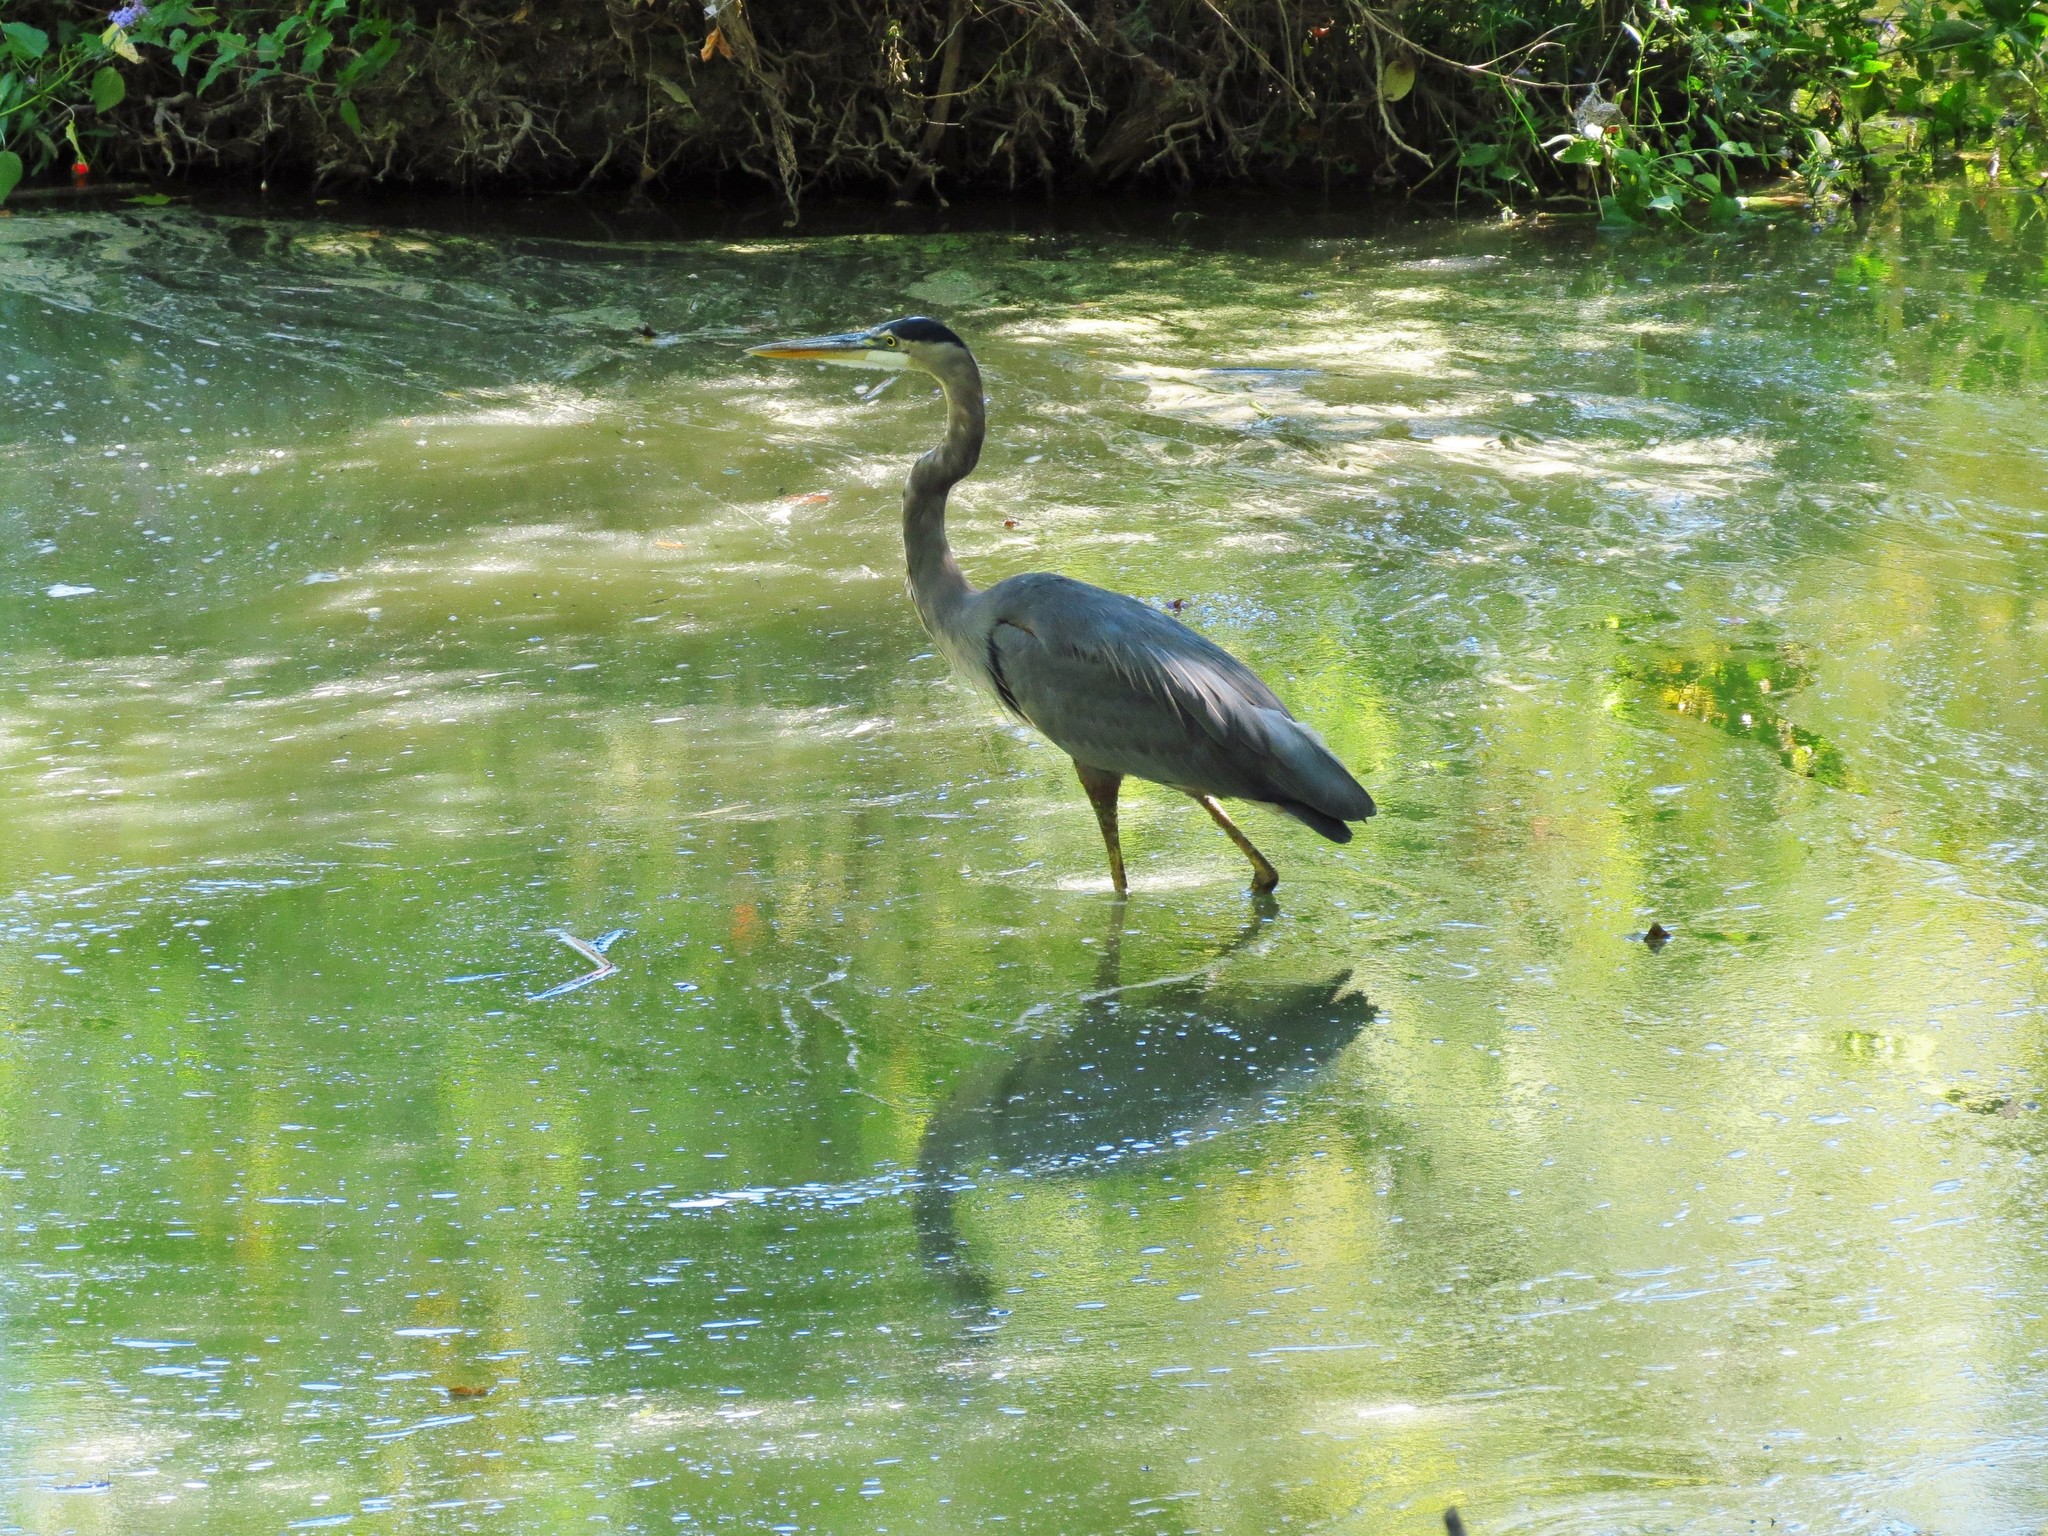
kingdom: Animalia
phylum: Chordata
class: Aves
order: Pelecaniformes
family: Ardeidae
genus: Ardea
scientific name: Ardea herodias
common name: Great blue heron
